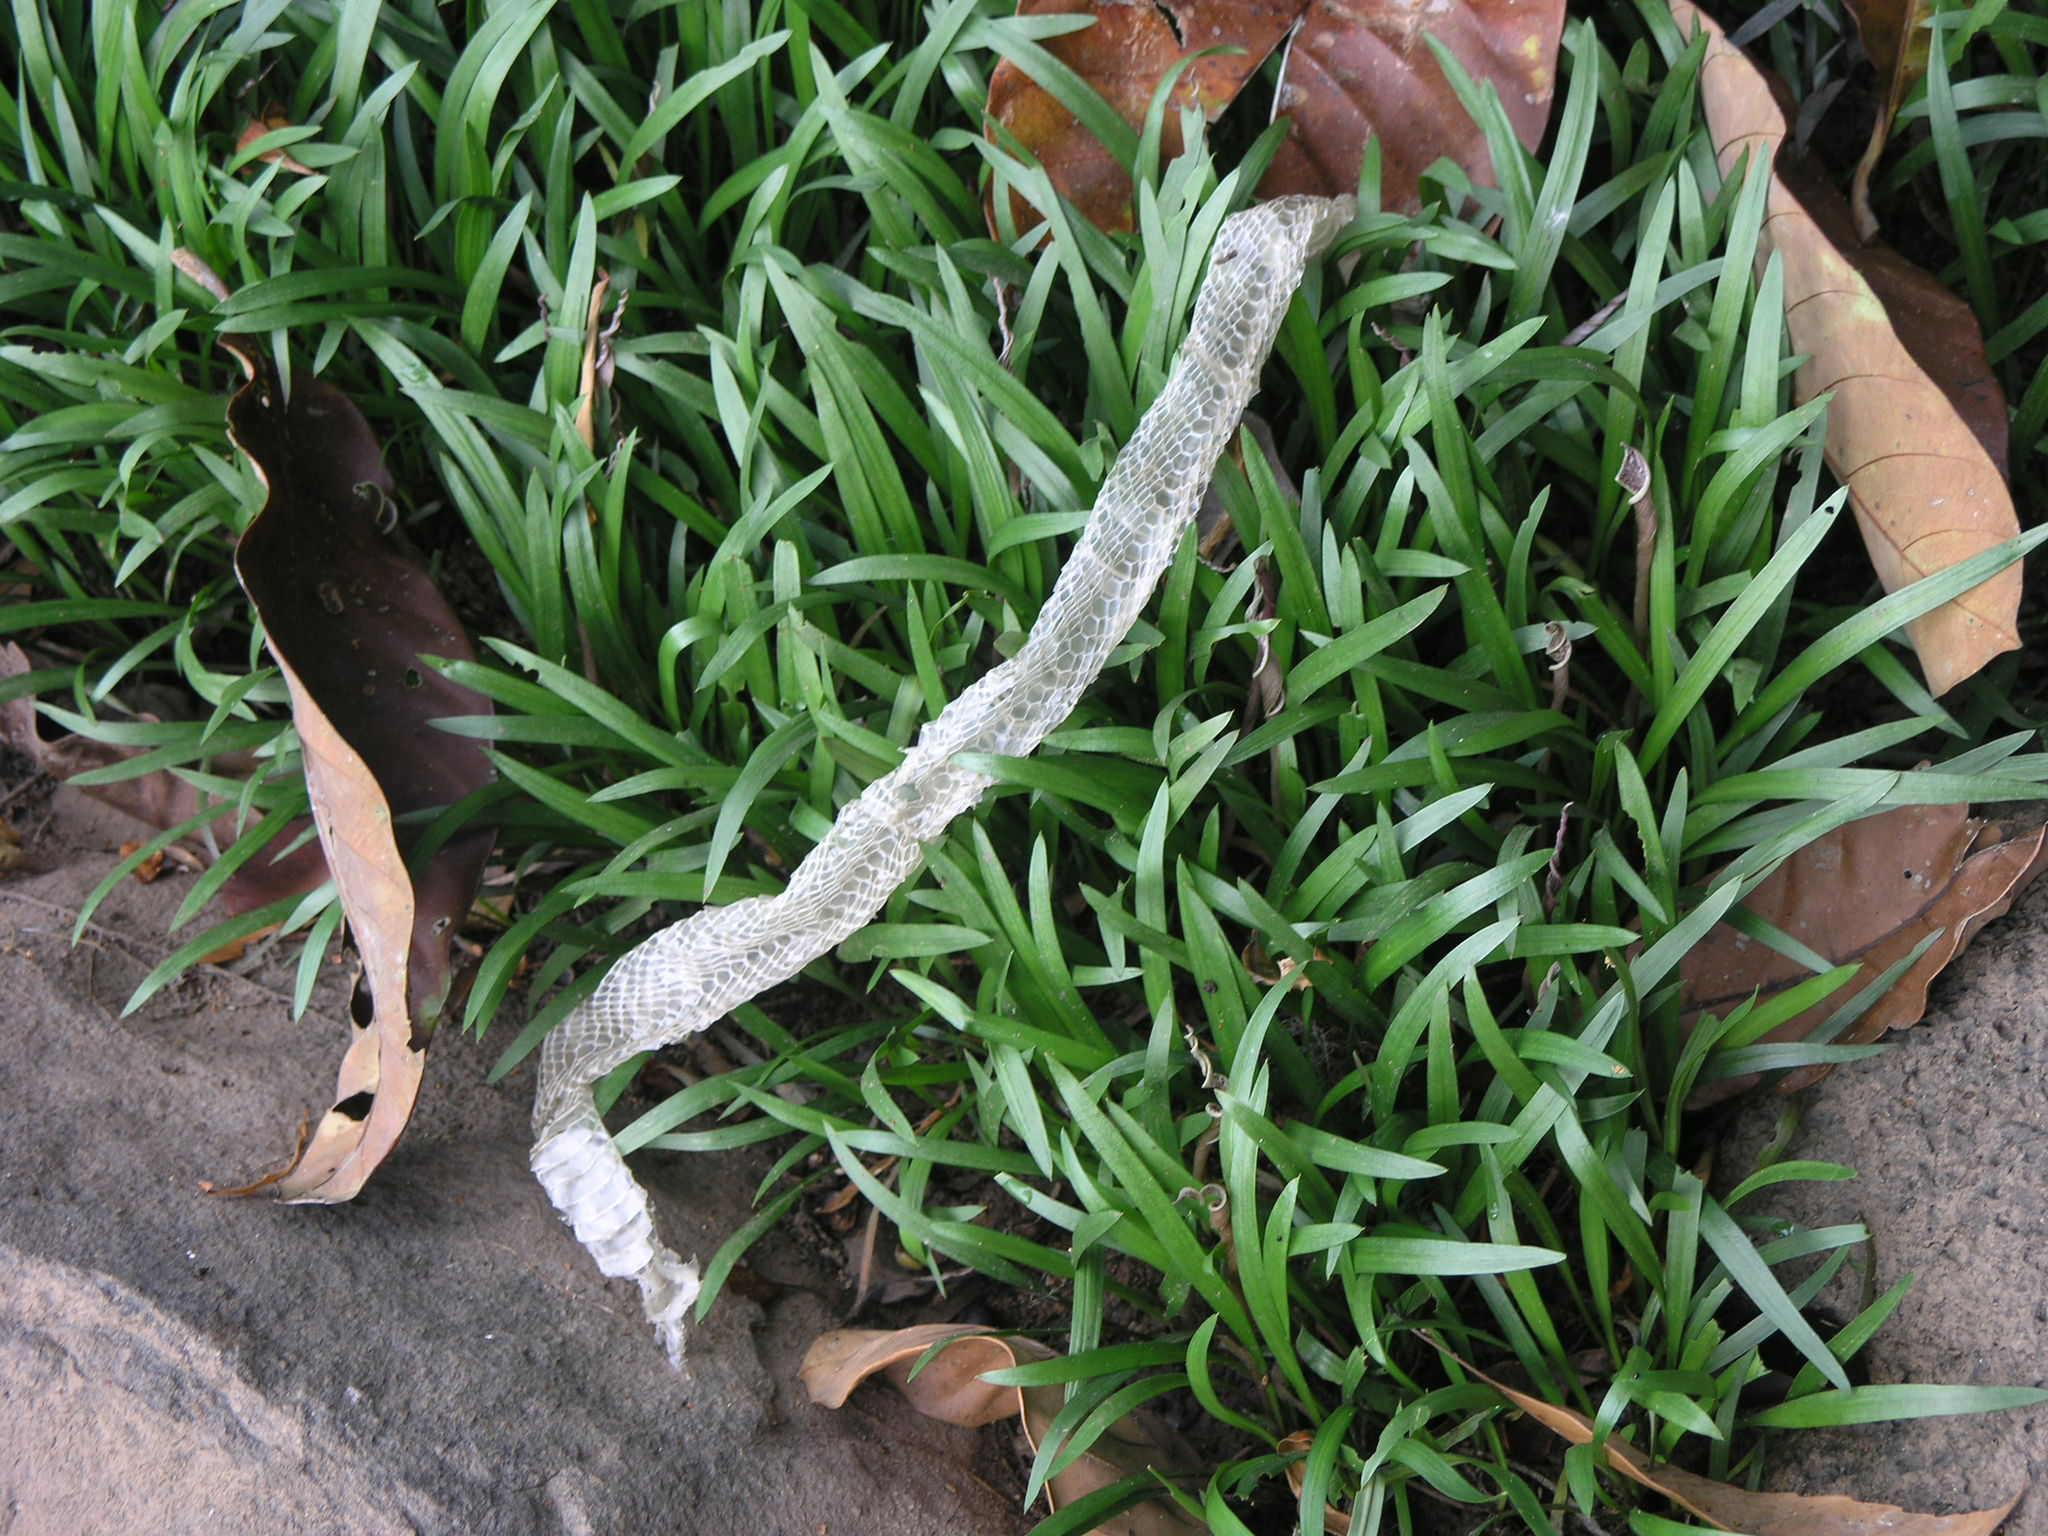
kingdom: Animalia
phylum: Chordata
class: Squamata
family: Colubridae
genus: Boiga
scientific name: Boiga cyanea
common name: Green cat snake
